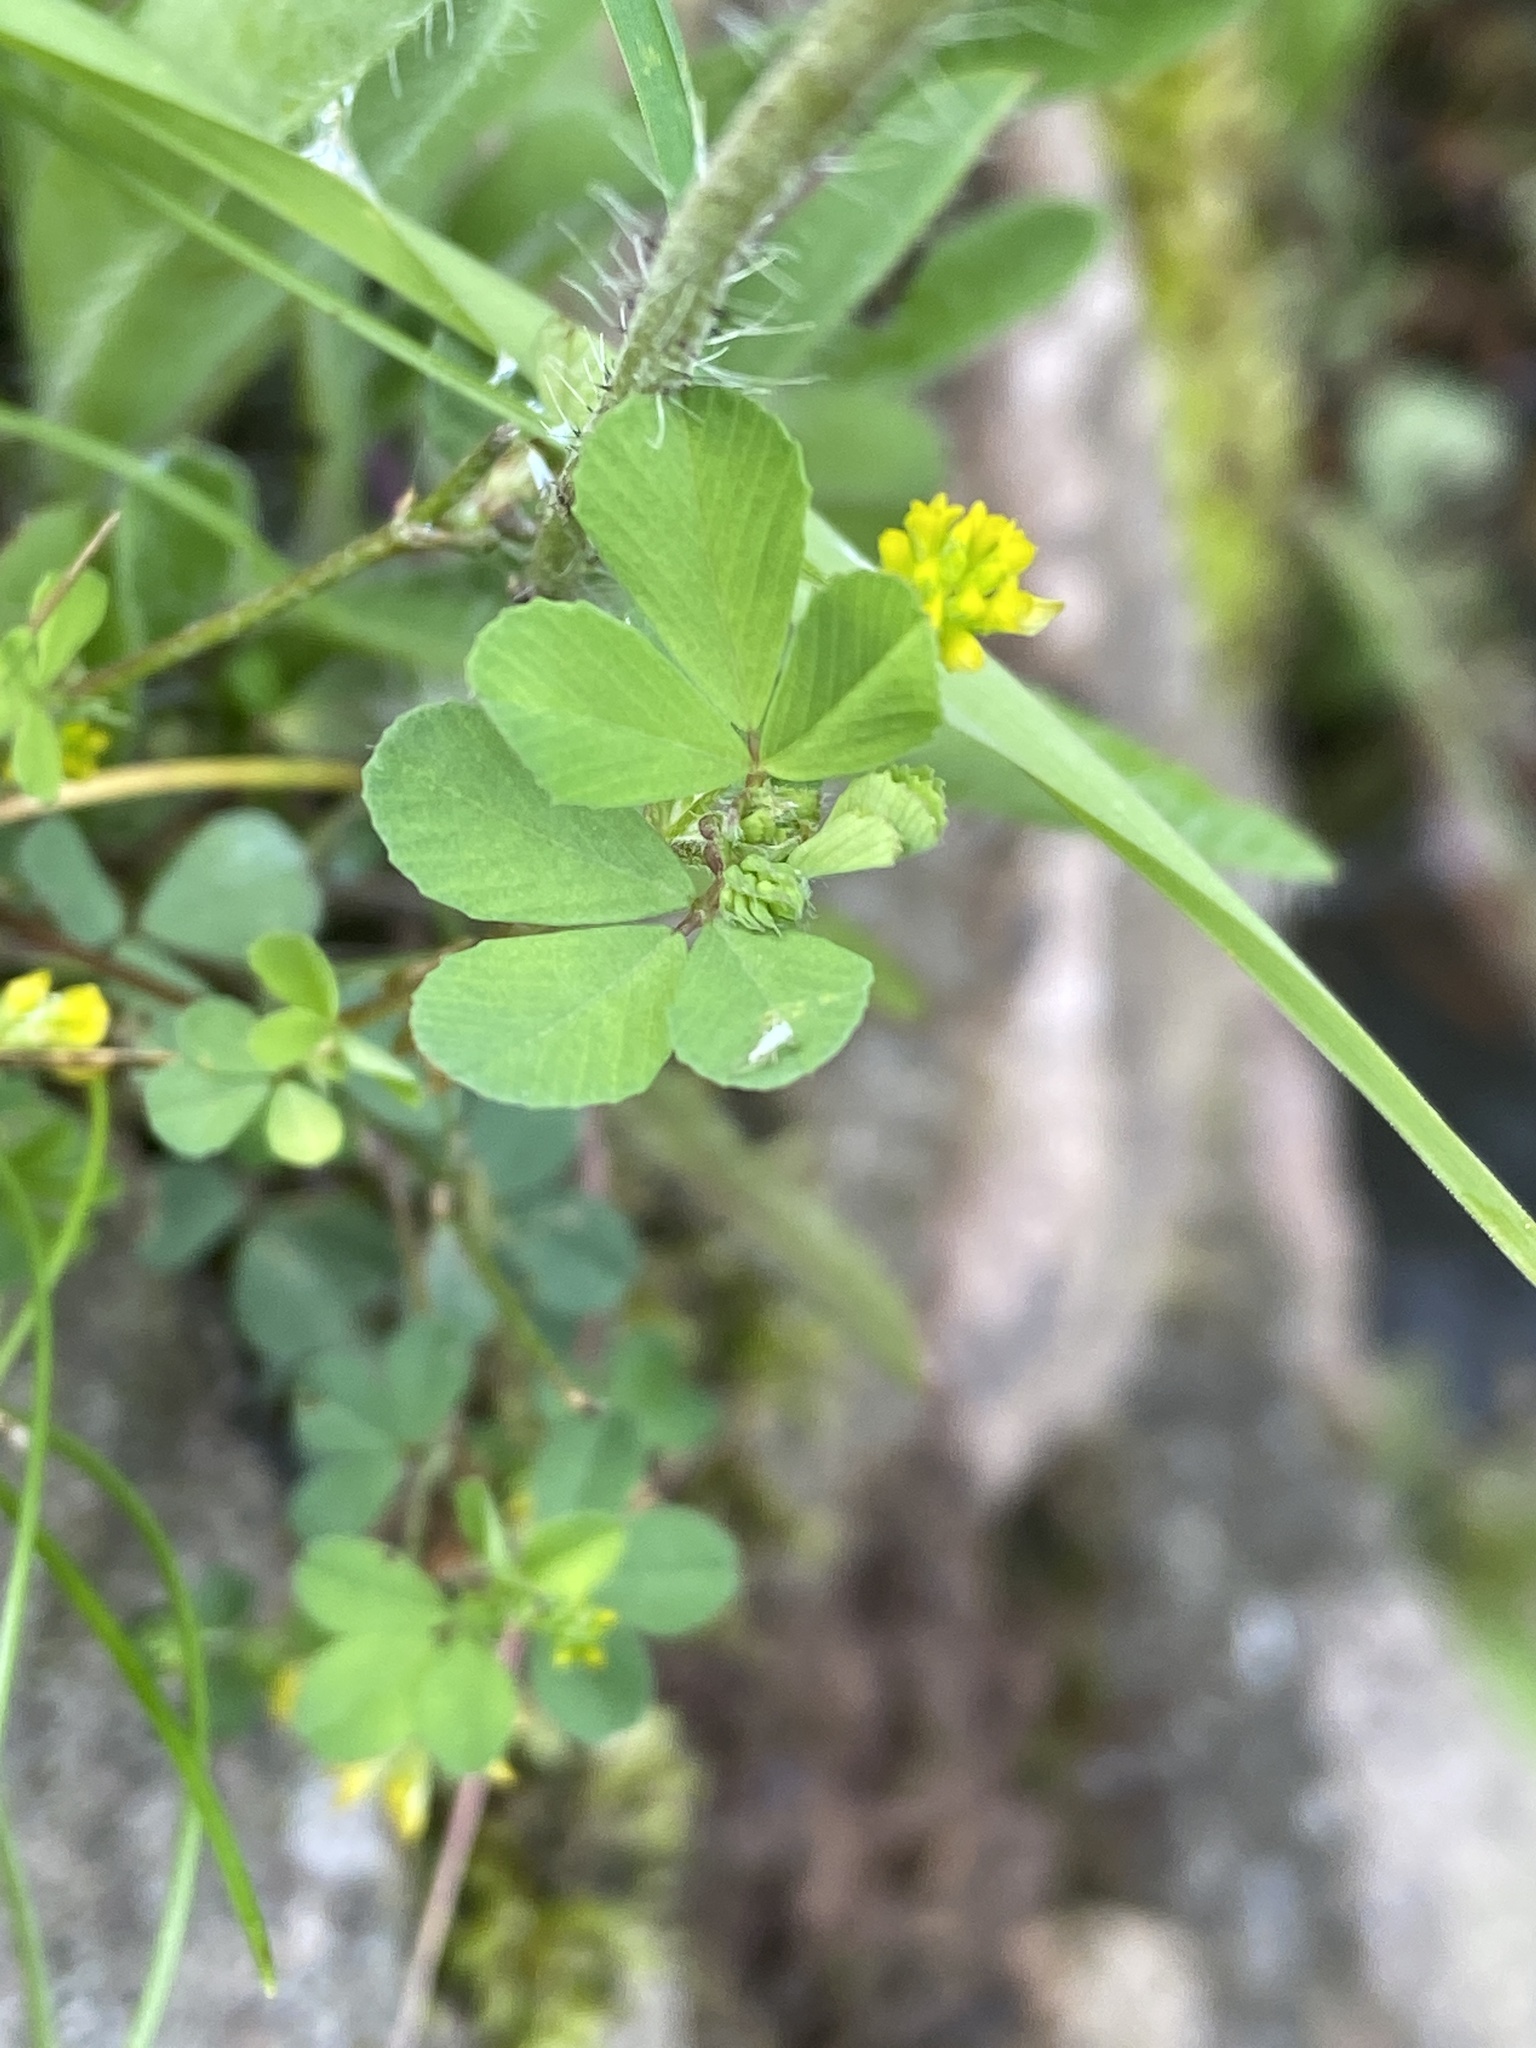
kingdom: Plantae
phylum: Tracheophyta
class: Magnoliopsida
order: Fabales
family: Fabaceae
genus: Medicago
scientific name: Medicago lupulina
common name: Black medick
